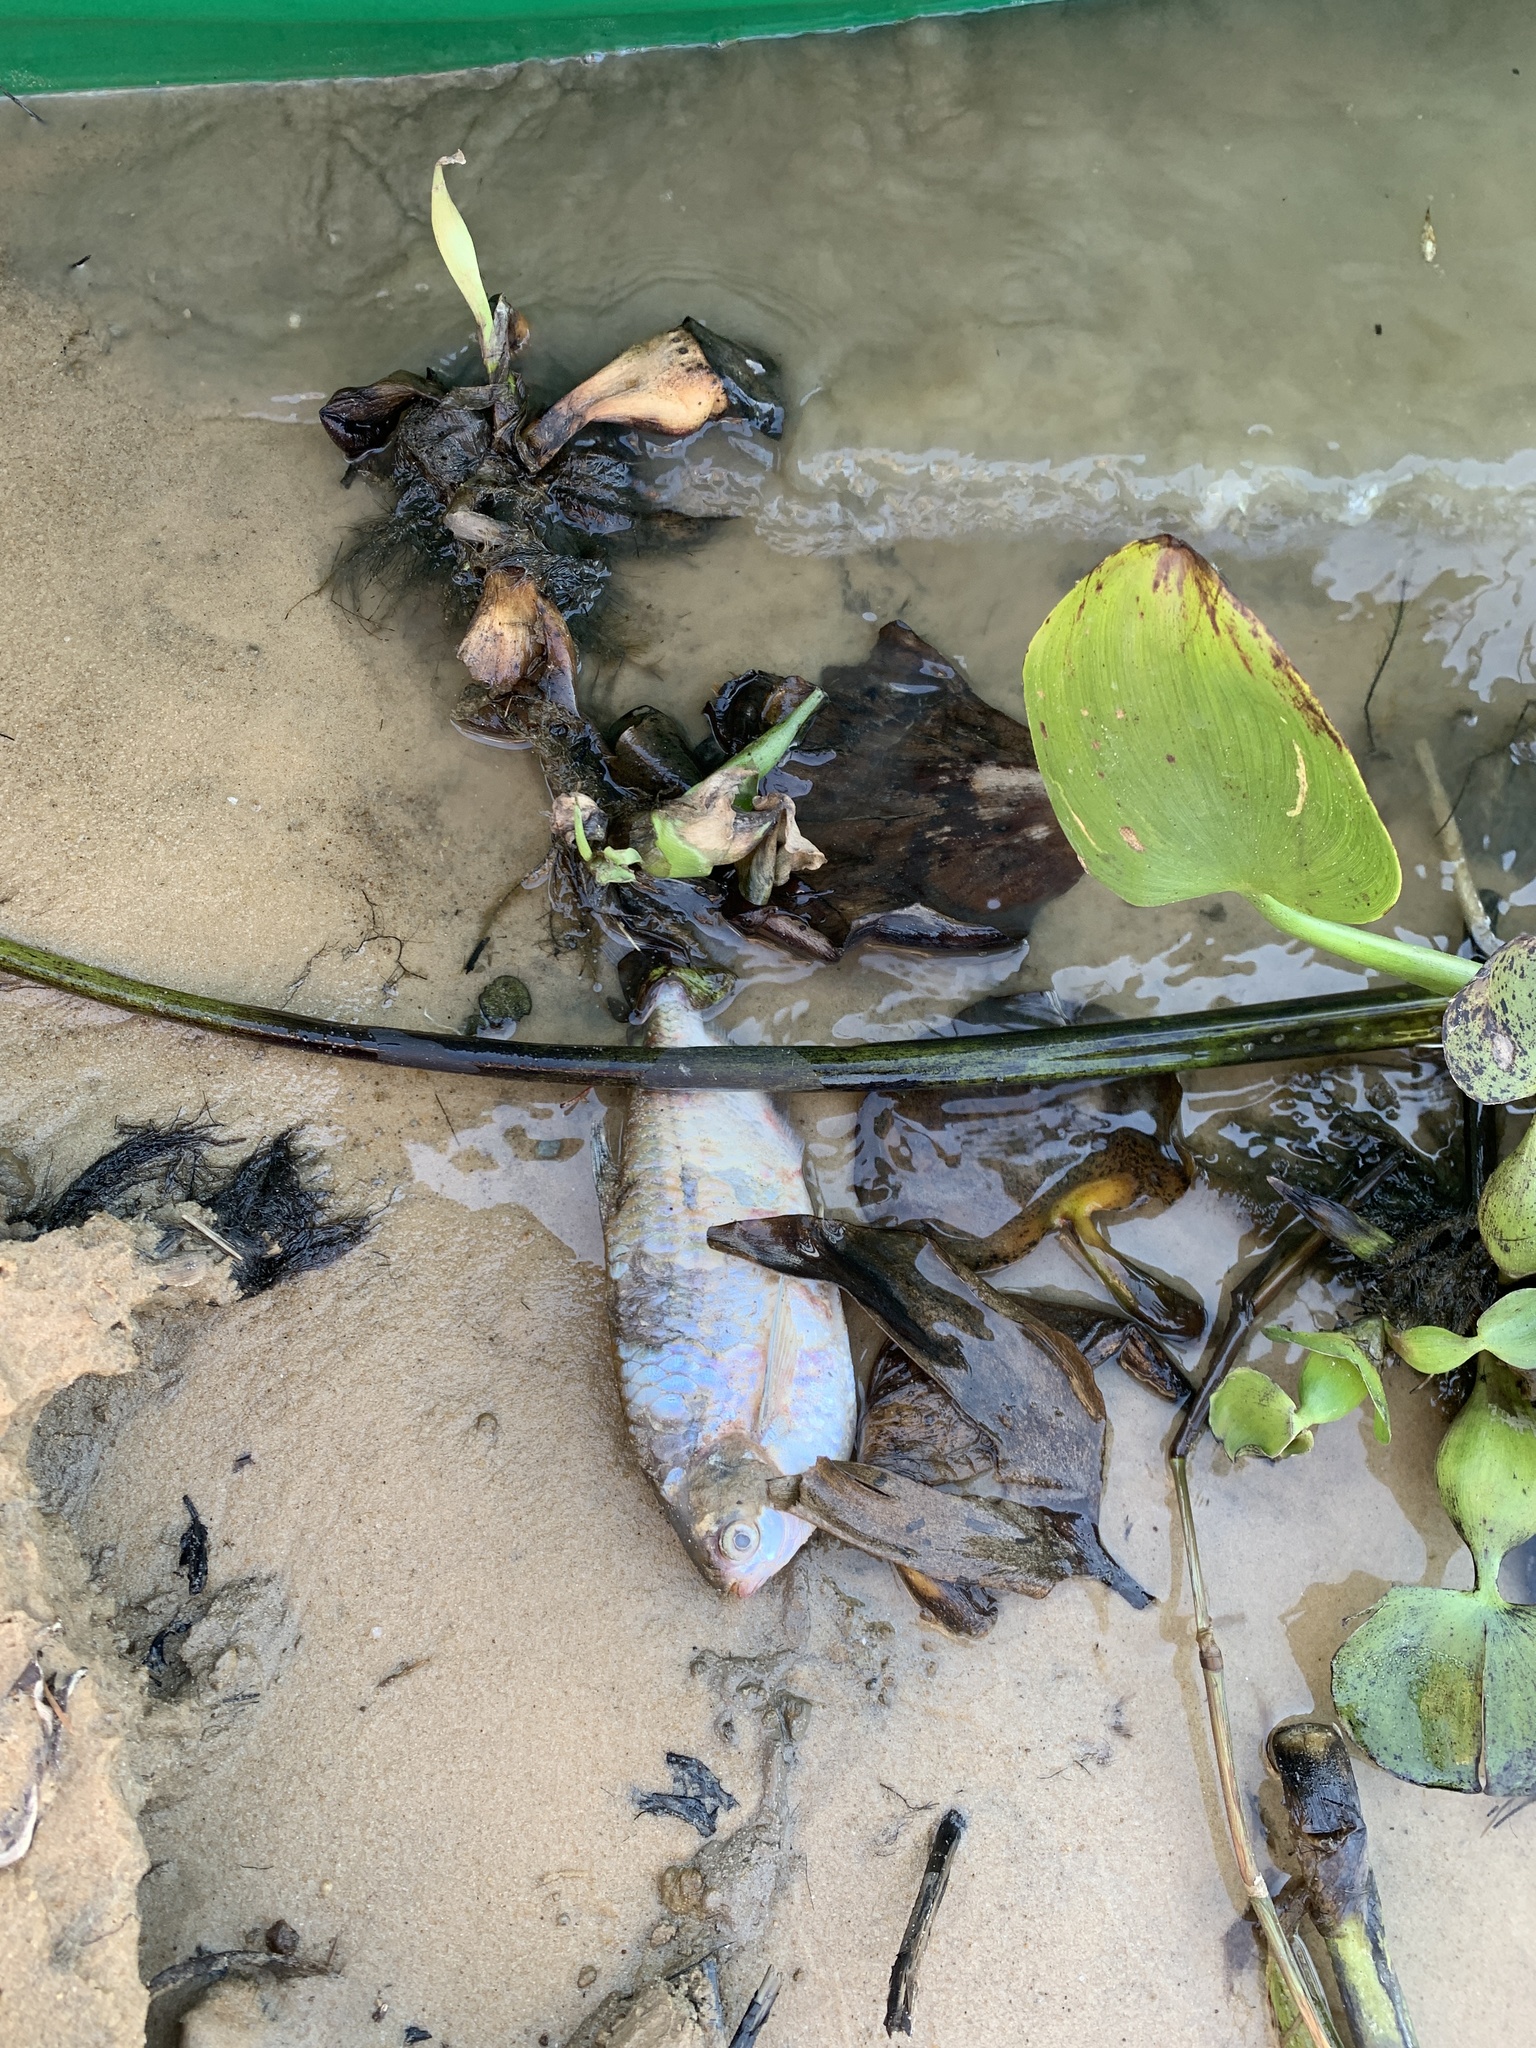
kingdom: Animalia
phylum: Chordata
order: Characiformes
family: Triportheidae
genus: Triportheus
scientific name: Triportheus nematurus
